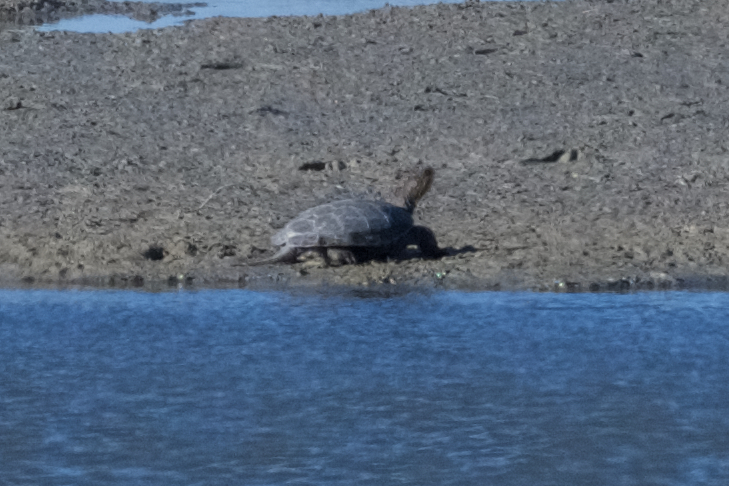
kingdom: Animalia
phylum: Chordata
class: Testudines
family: Emydidae
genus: Actinemys
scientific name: Actinemys marmorata
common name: Western pond turtle
